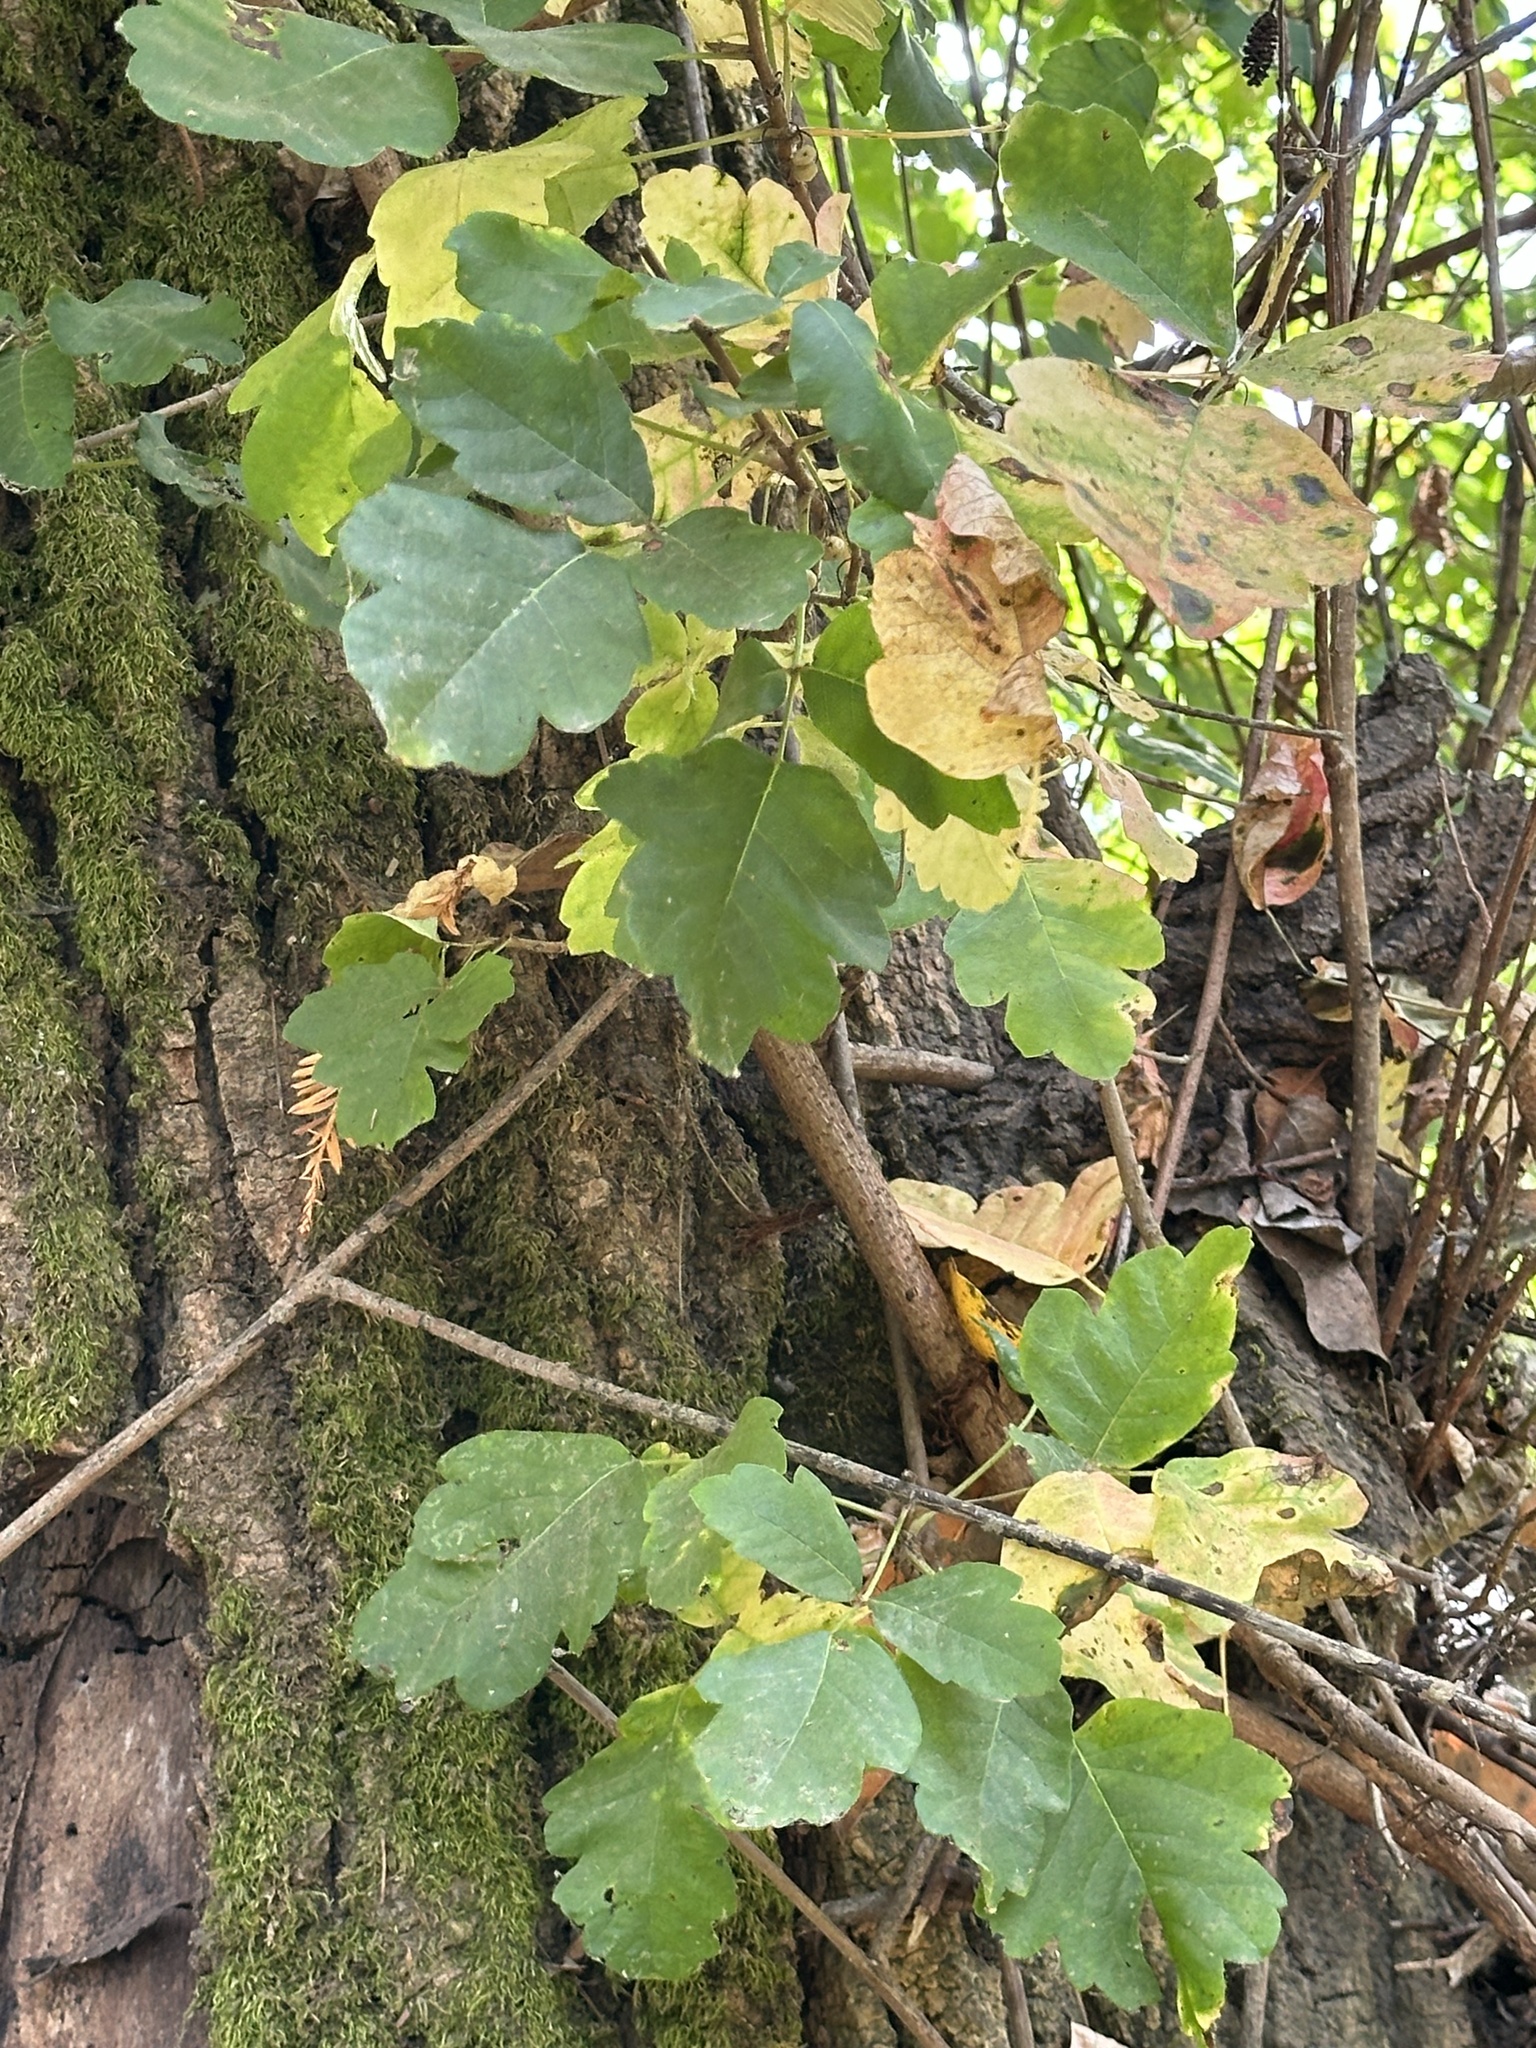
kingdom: Plantae
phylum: Tracheophyta
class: Magnoliopsida
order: Sapindales
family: Anacardiaceae
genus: Toxicodendron
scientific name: Toxicodendron diversilobum
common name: Pacific poison-oak
